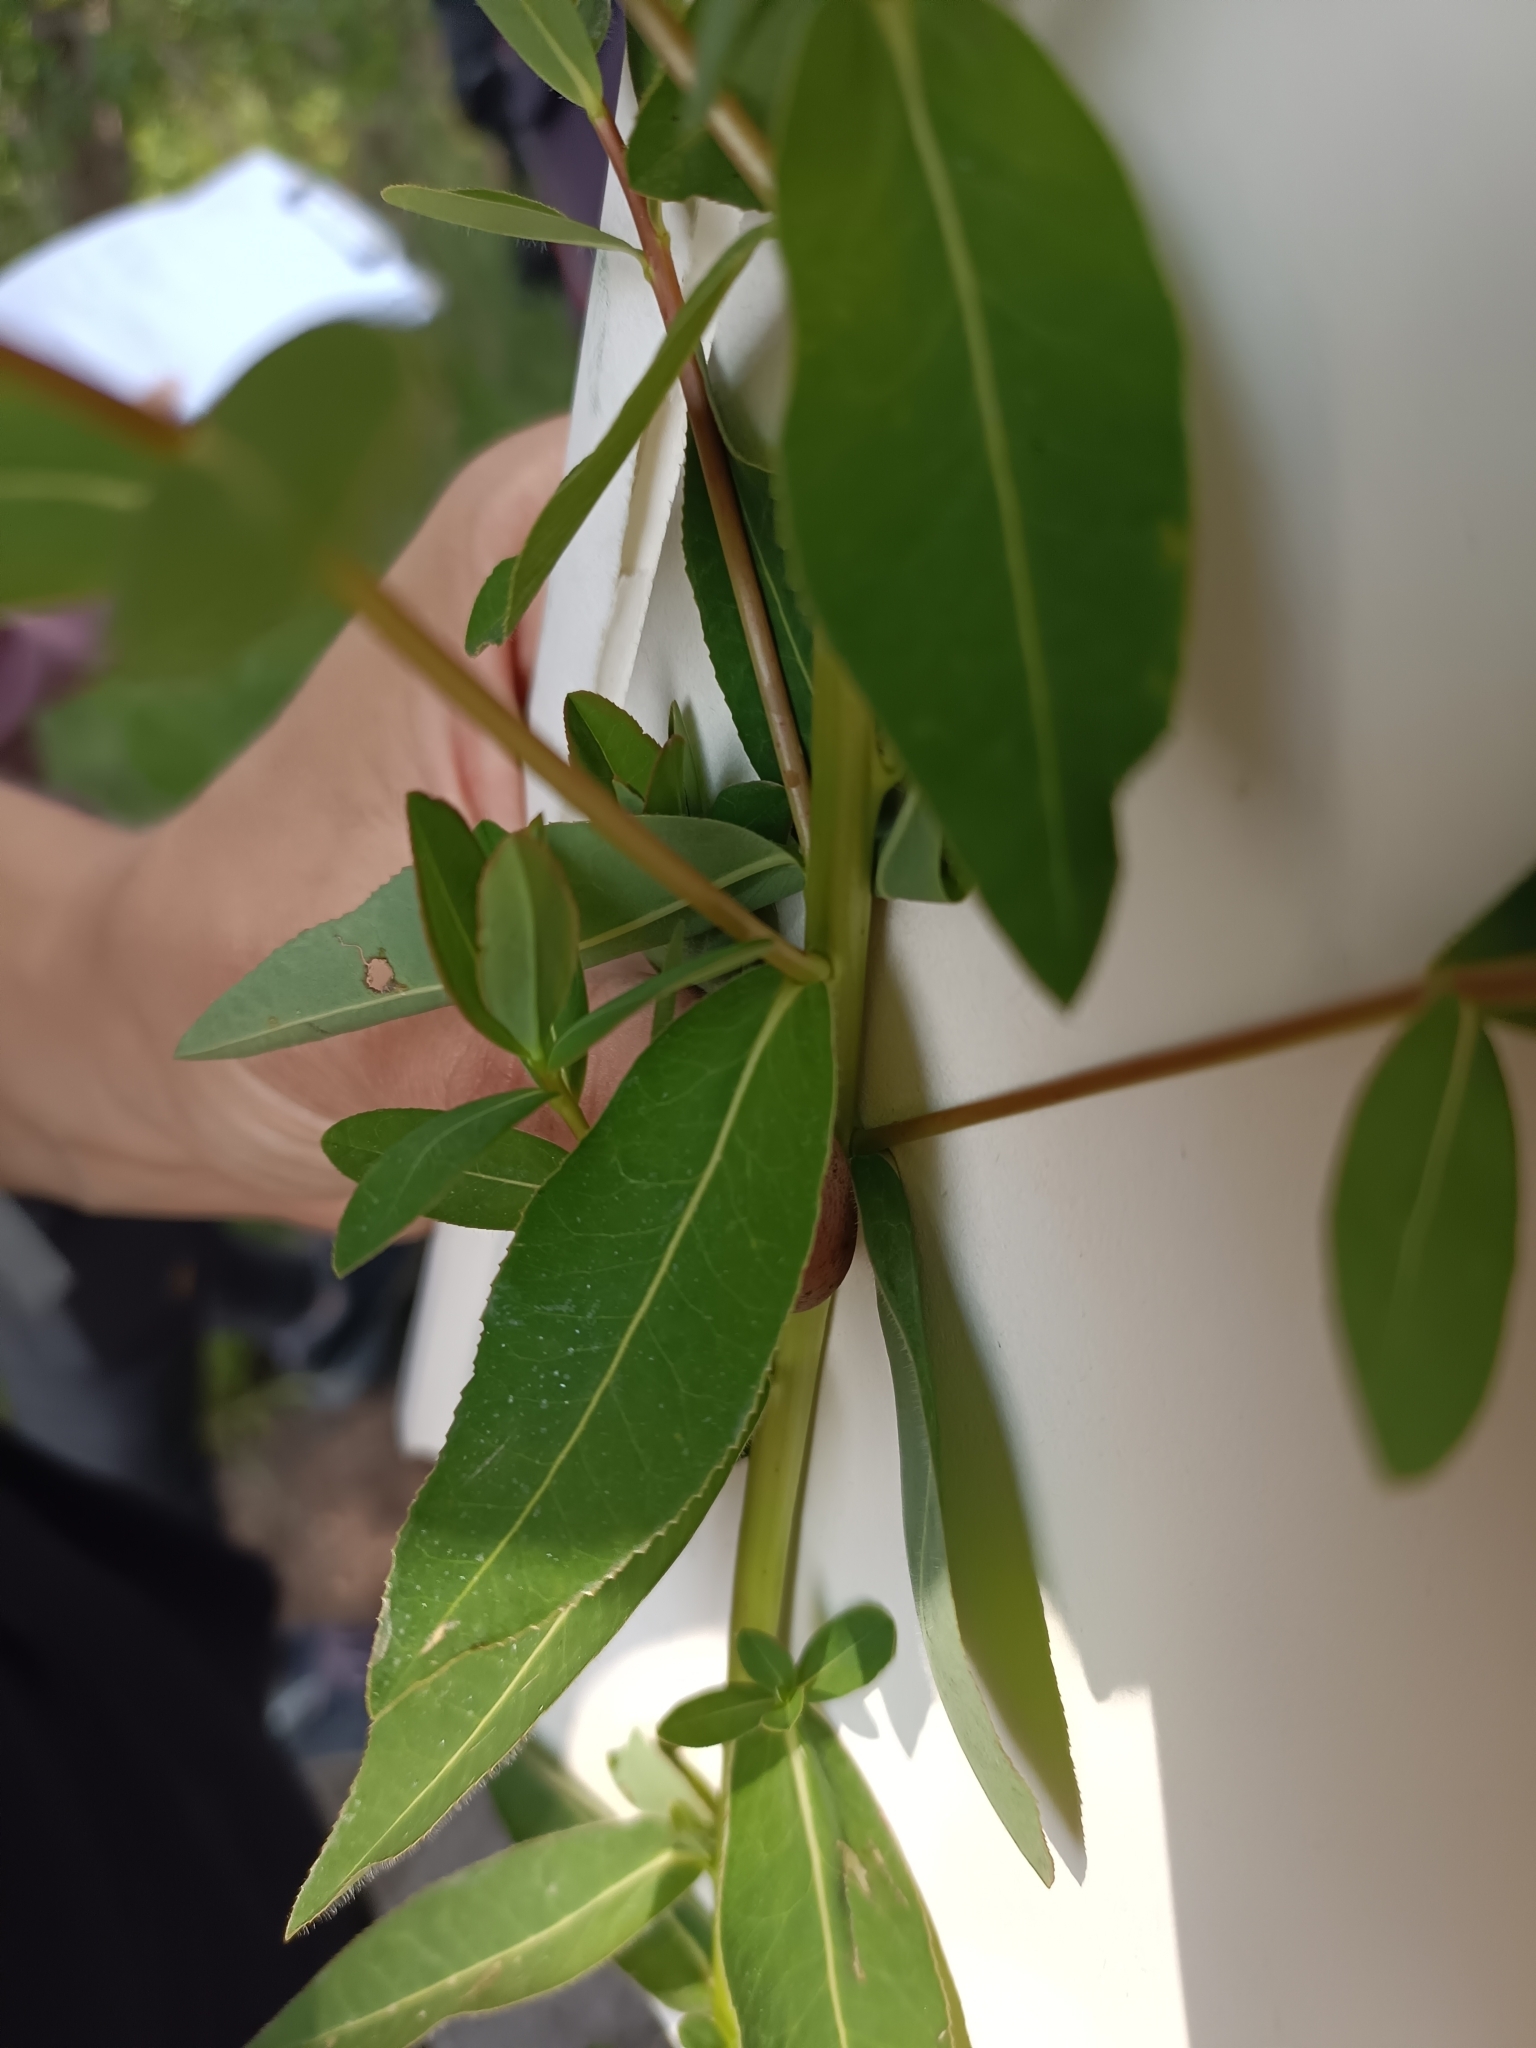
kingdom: Plantae
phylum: Tracheophyta
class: Magnoliopsida
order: Malpighiales
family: Euphorbiaceae
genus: Euphorbia
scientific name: Euphorbia illirica
